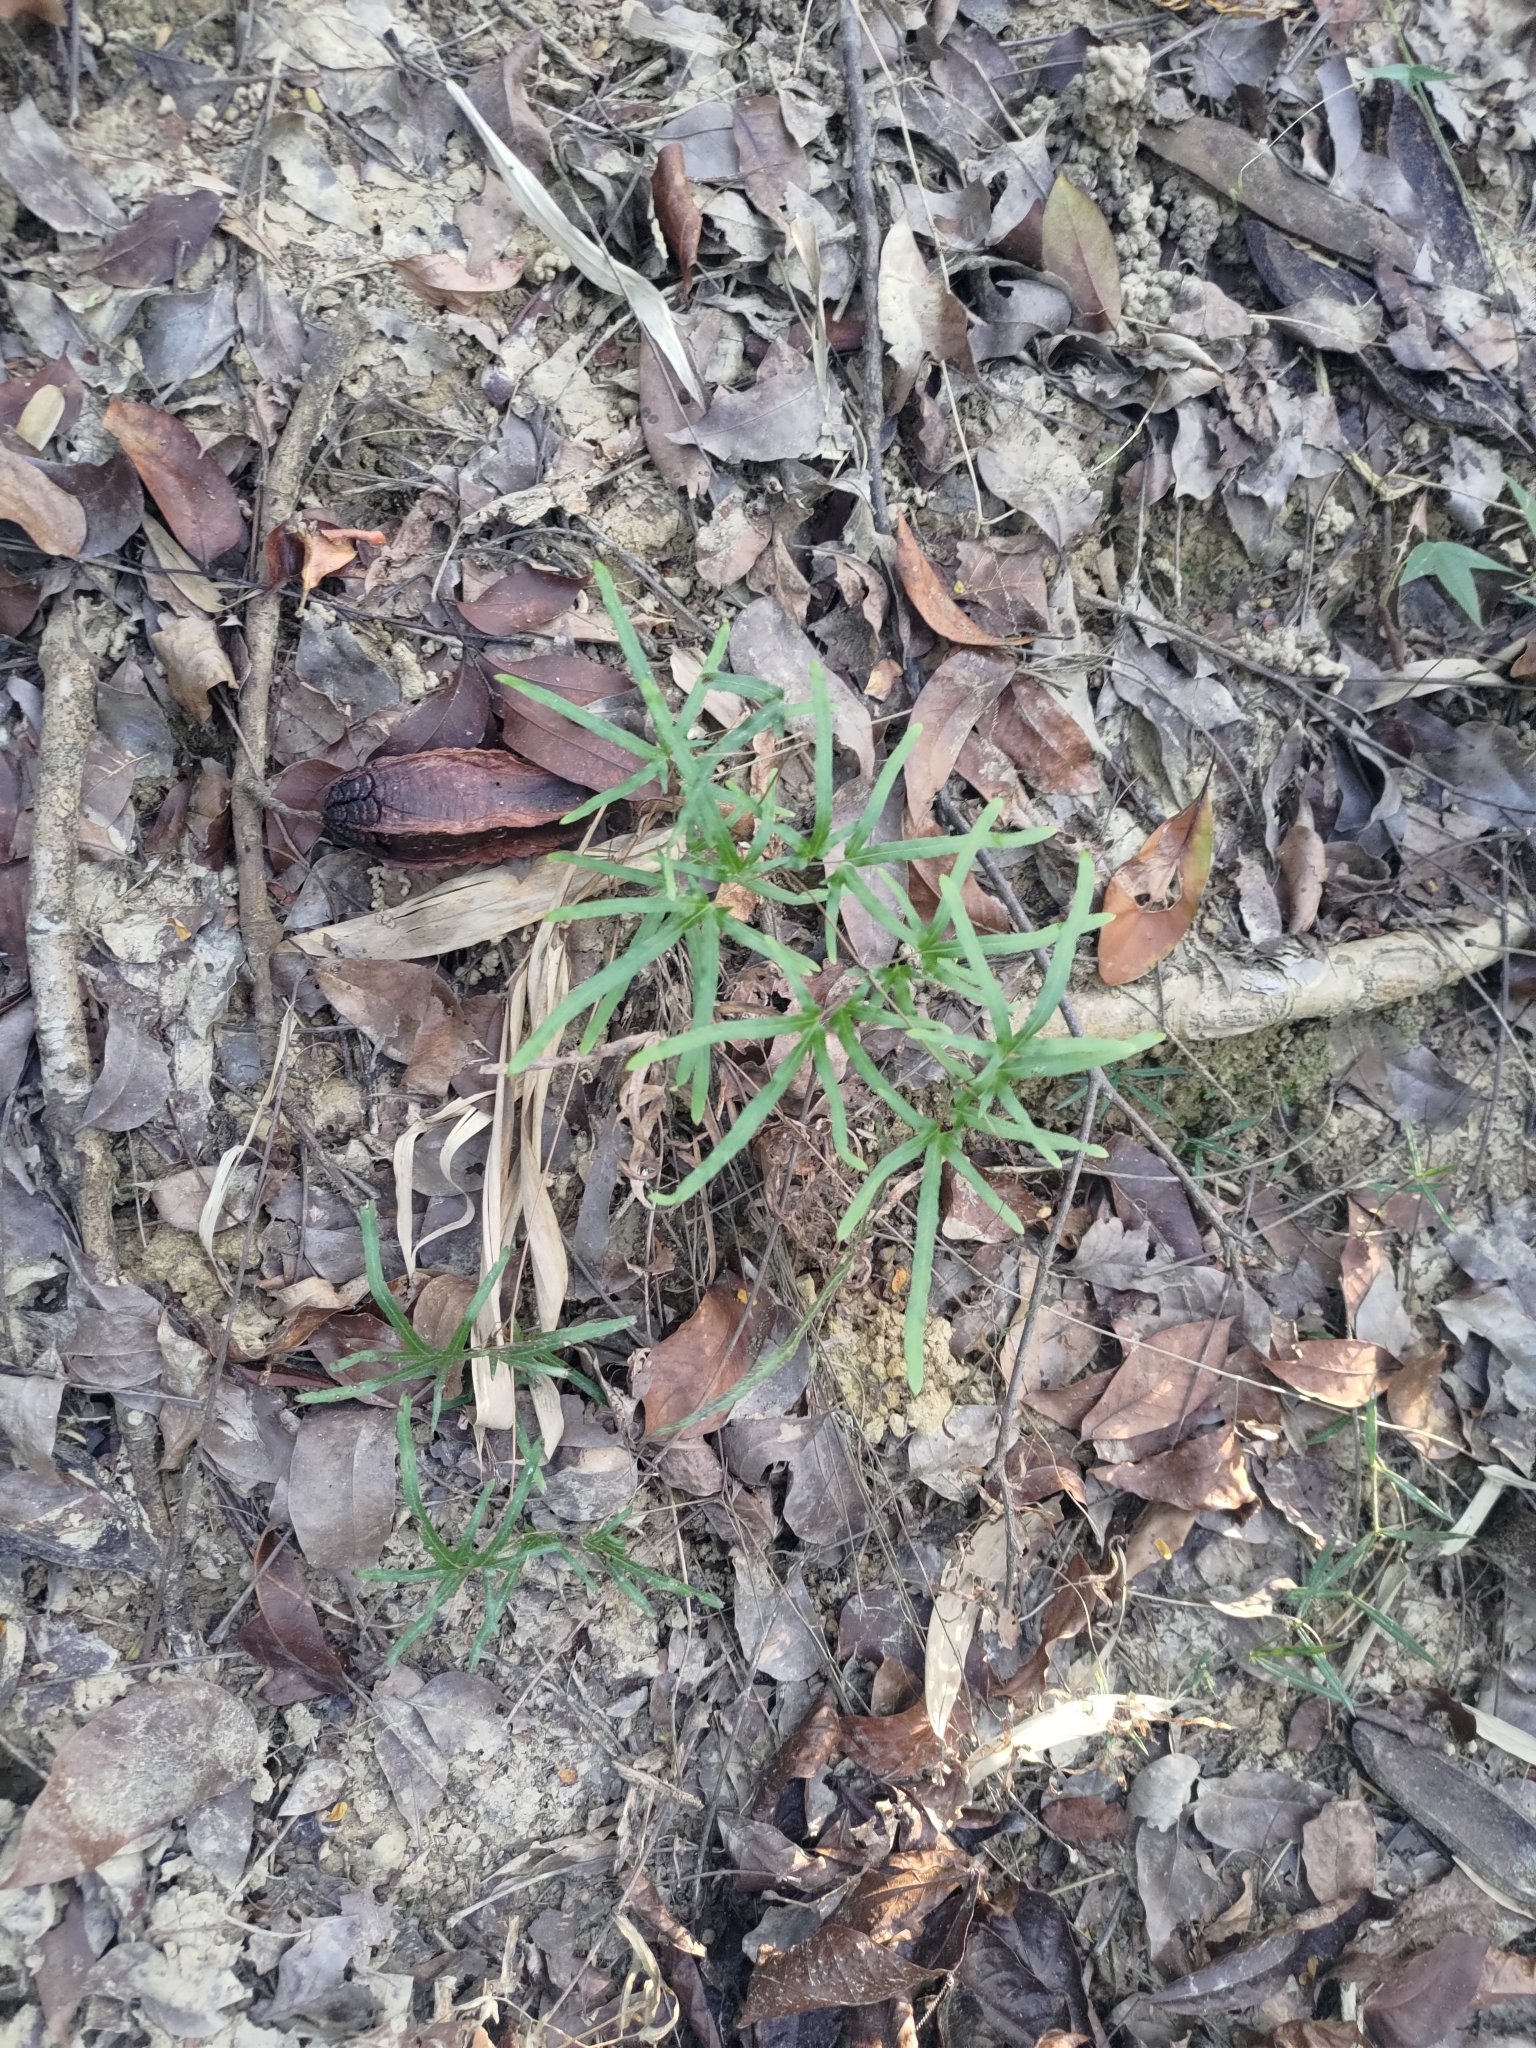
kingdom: Plantae
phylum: Tracheophyta
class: Polypodiopsida
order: Schizaeales
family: Lygodiaceae
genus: Lygodium
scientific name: Lygodium japonicum
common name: Japanese climbing fern
